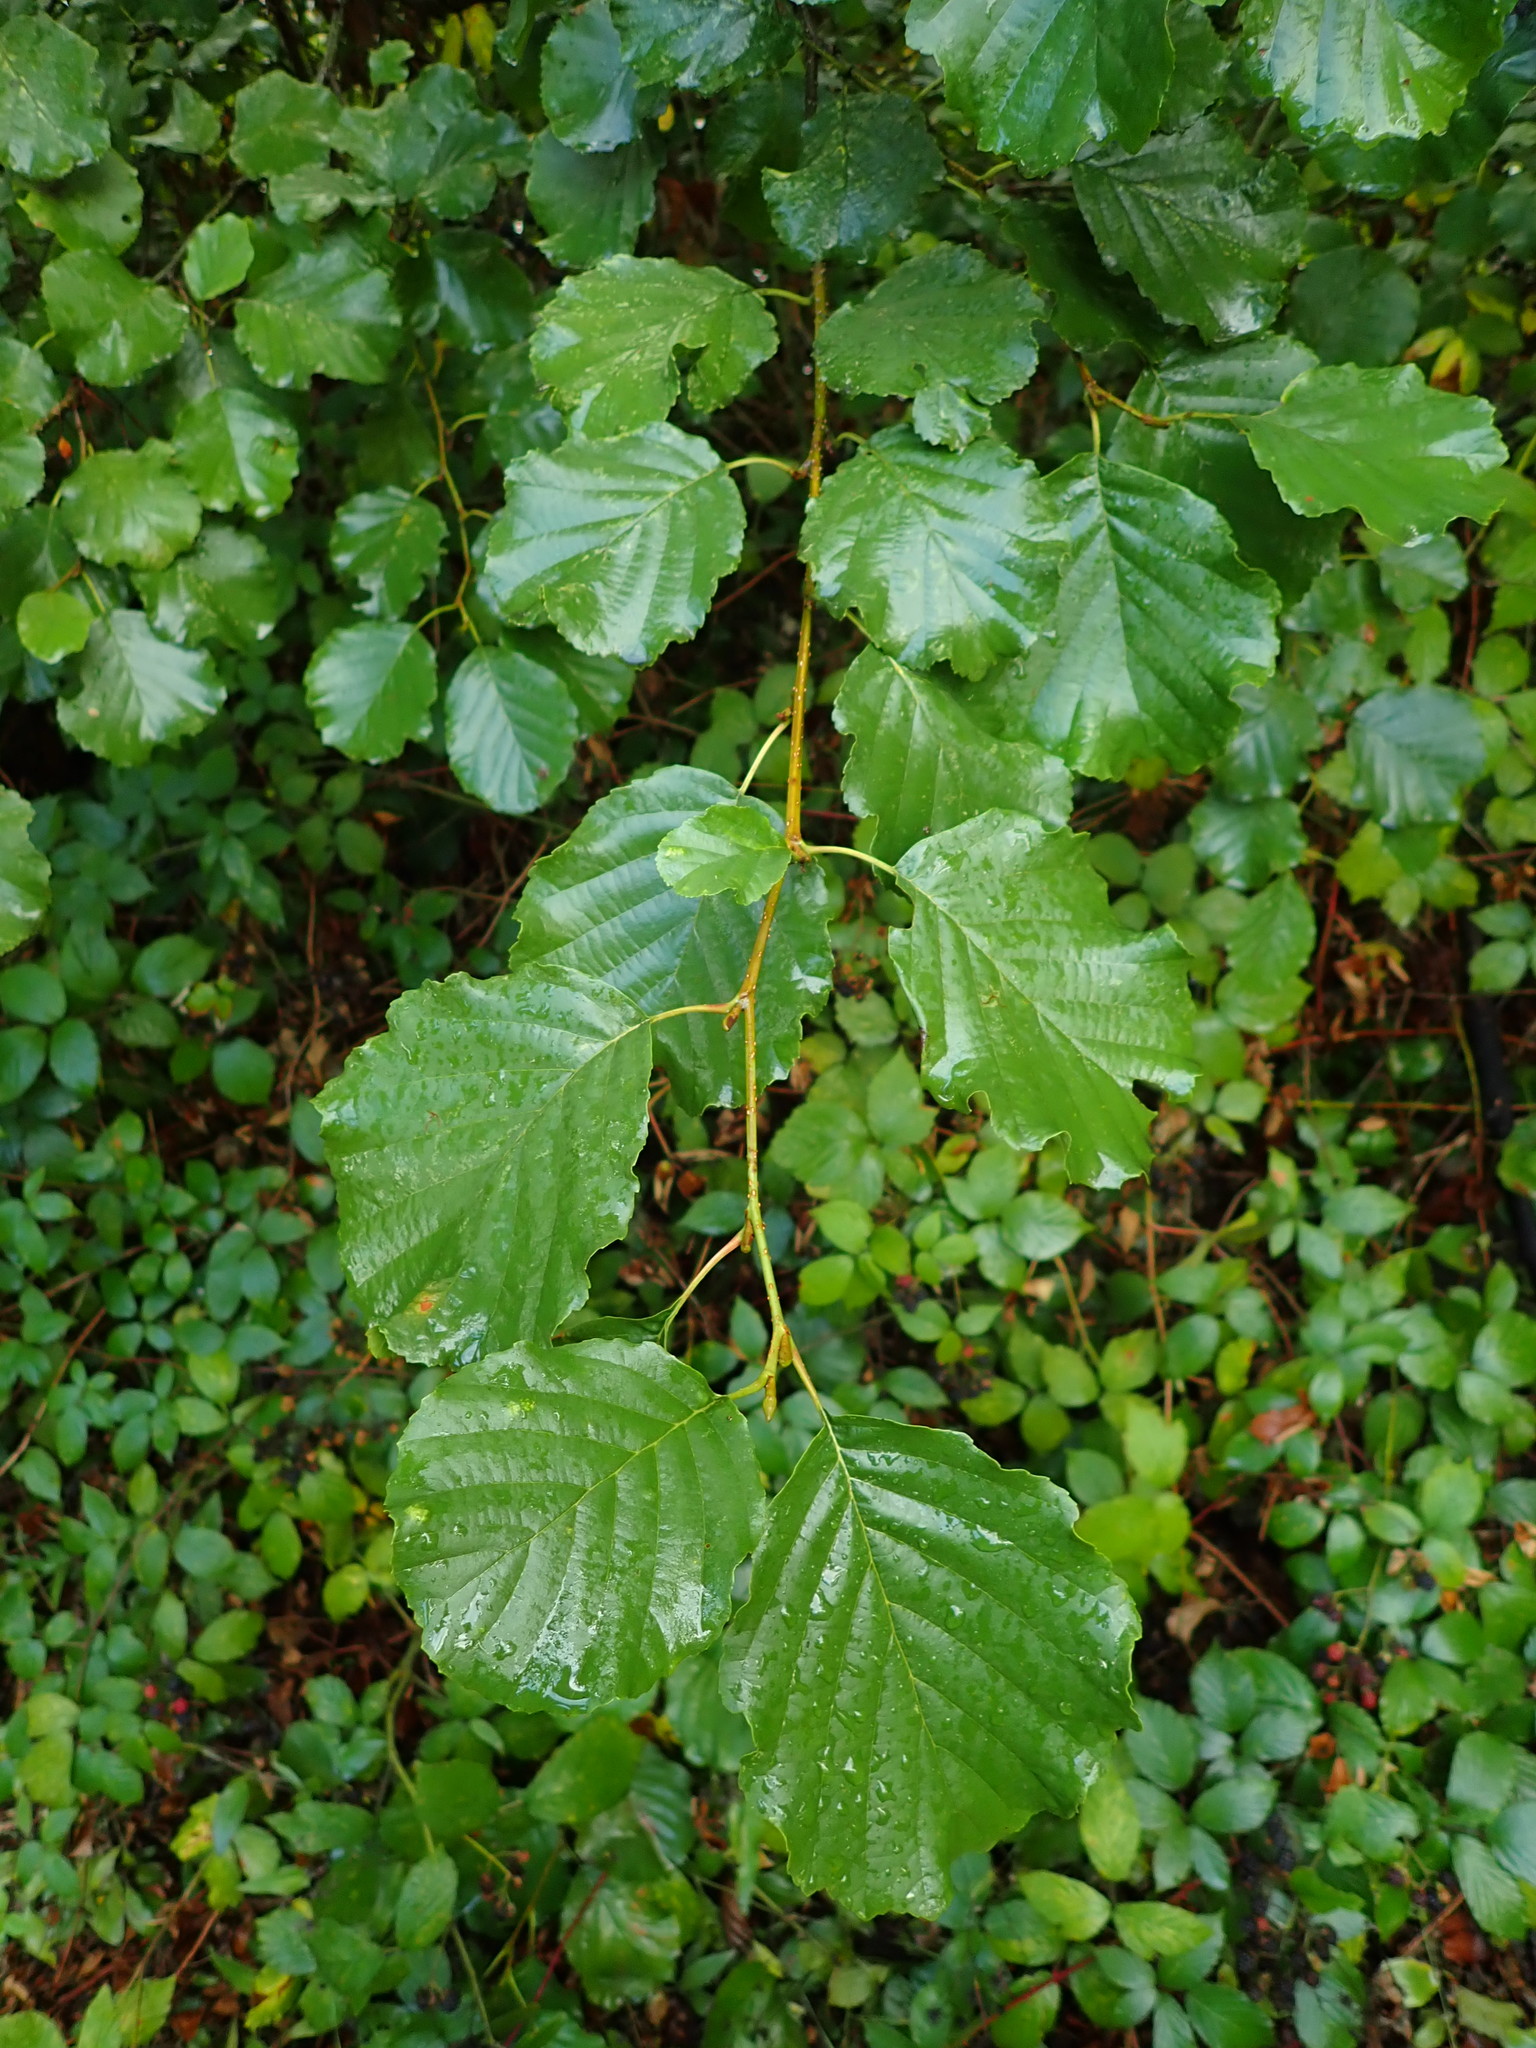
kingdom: Plantae
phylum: Tracheophyta
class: Magnoliopsida
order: Fagales
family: Betulaceae
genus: Alnus
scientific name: Alnus glutinosa
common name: Black alder
